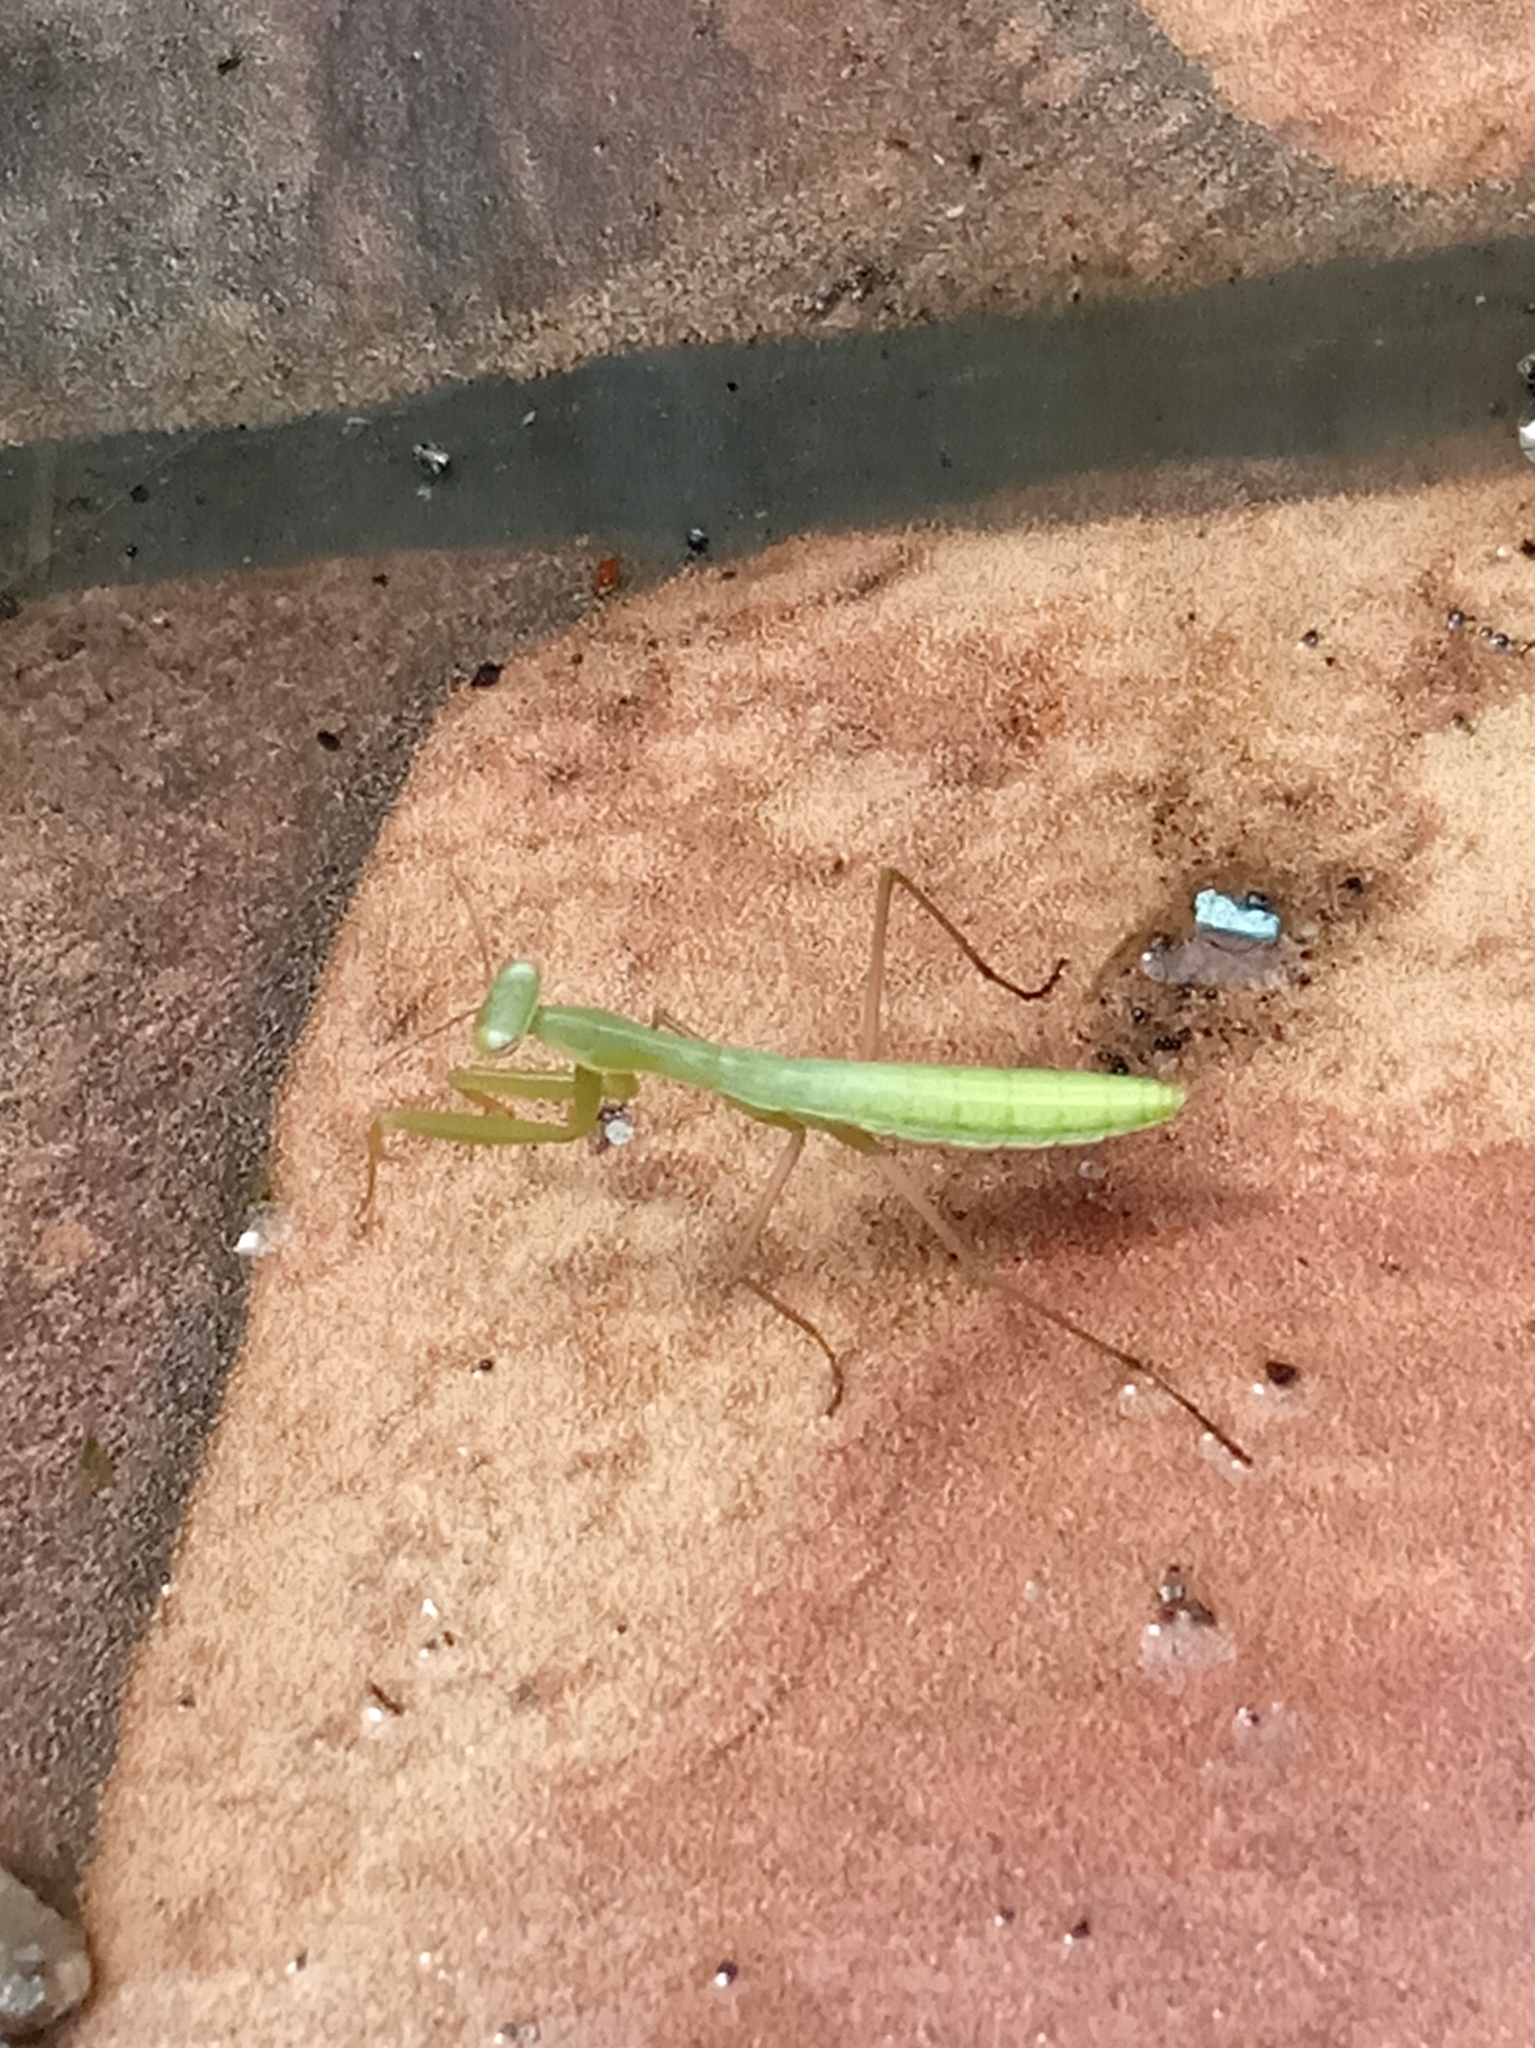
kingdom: Animalia
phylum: Arthropoda
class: Insecta
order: Mantodea
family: Mantidae
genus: Mantis
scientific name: Mantis religiosa
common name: Praying mantis
